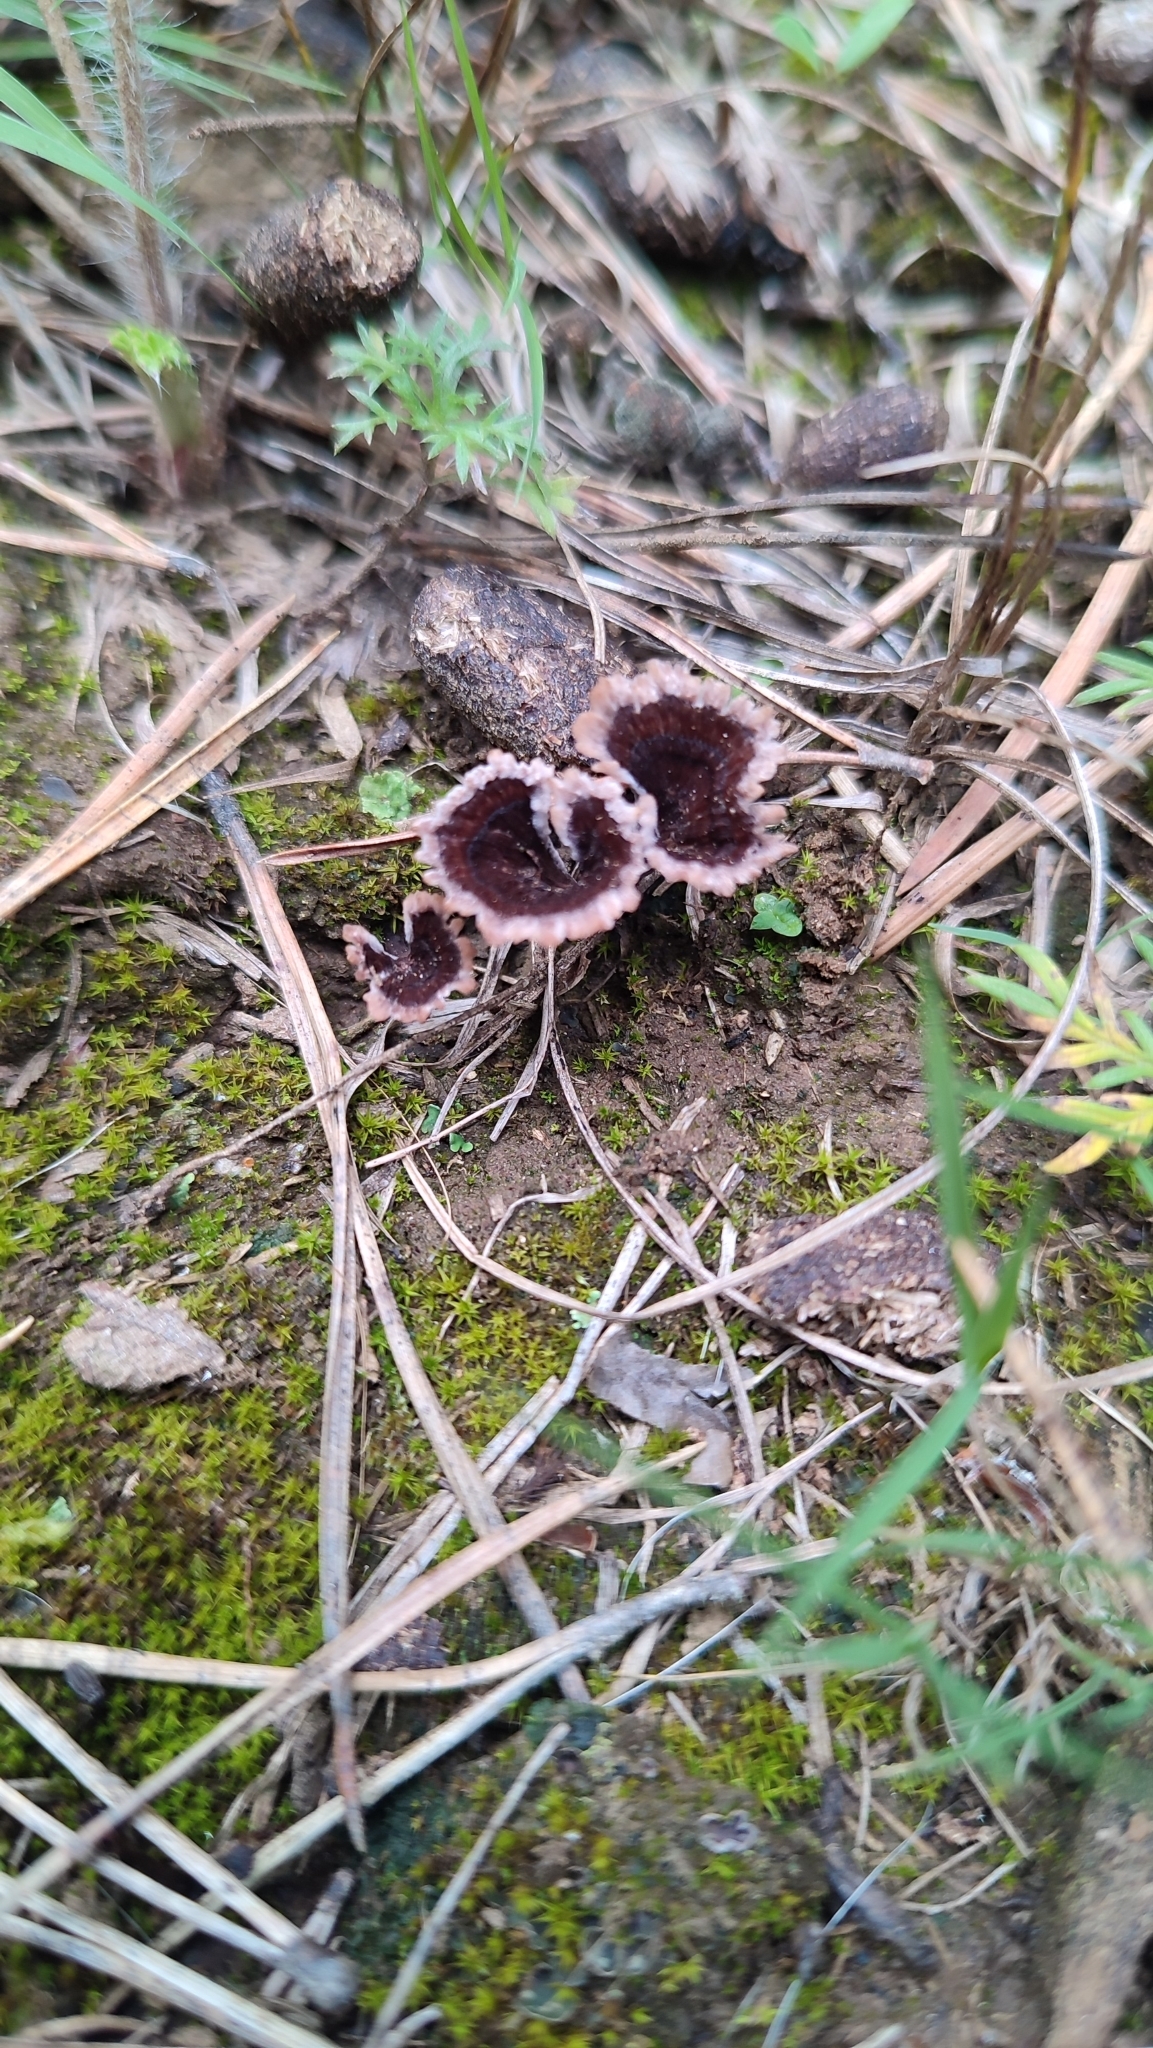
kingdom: Fungi
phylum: Basidiomycota
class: Agaricomycetes
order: Thelephorales
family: Thelephoraceae
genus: Thelephora
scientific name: Thelephora caryophyllea
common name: Carnation earthfan
